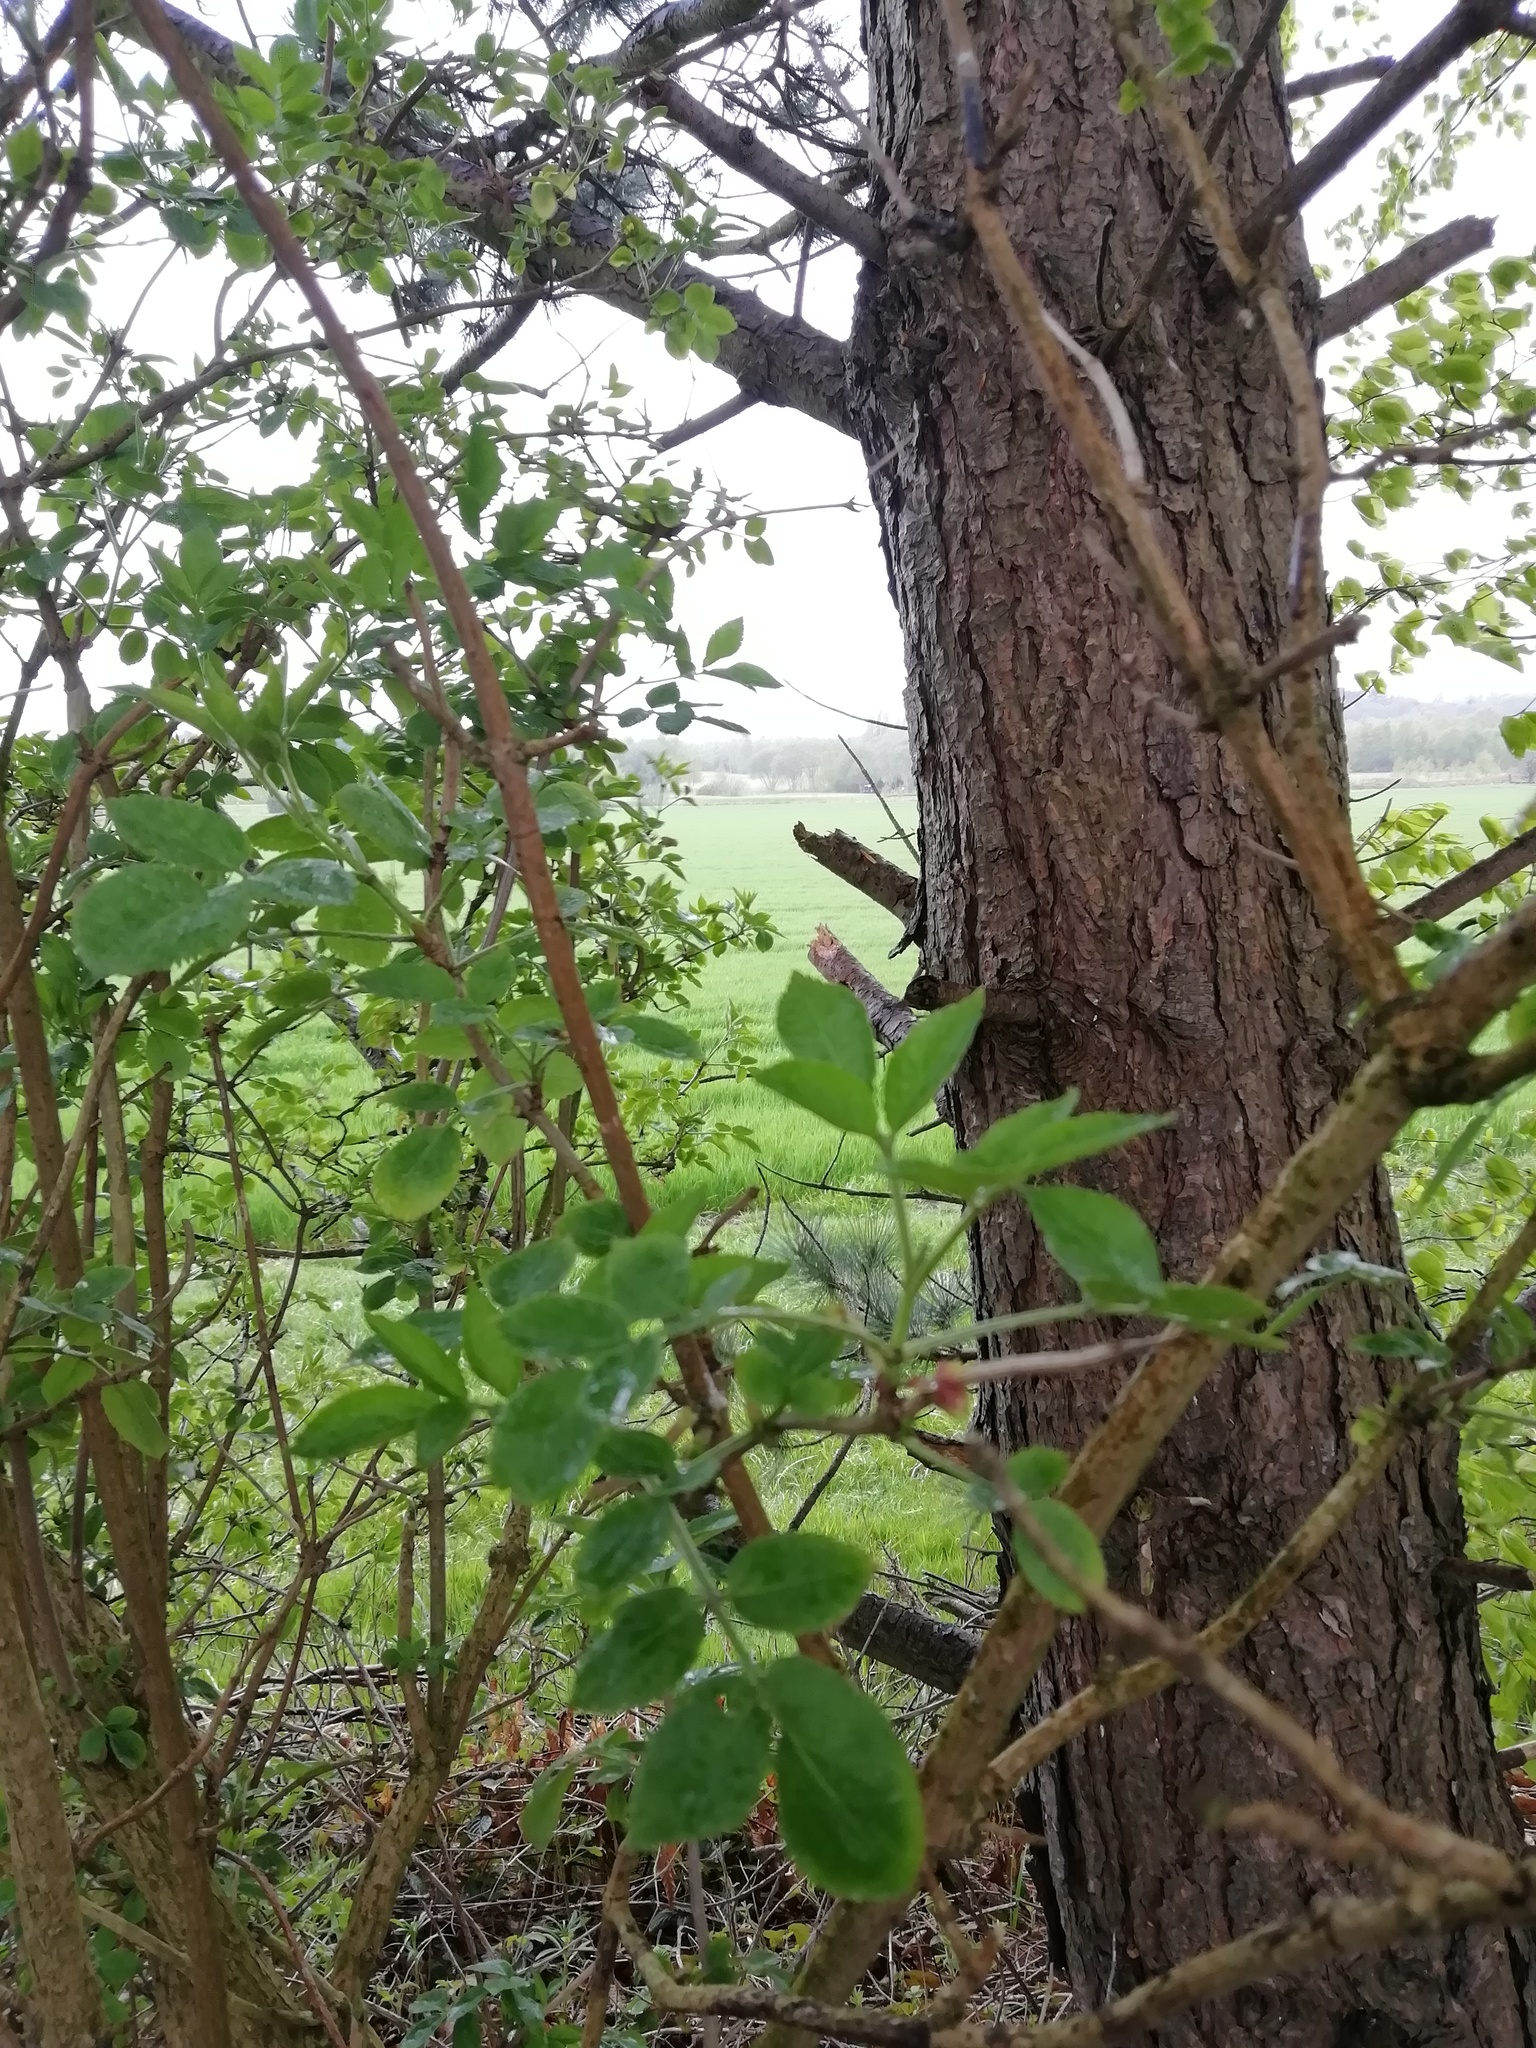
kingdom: Plantae
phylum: Tracheophyta
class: Magnoliopsida
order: Dipsacales
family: Viburnaceae
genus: Sambucus
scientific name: Sambucus nigra
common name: Elder
